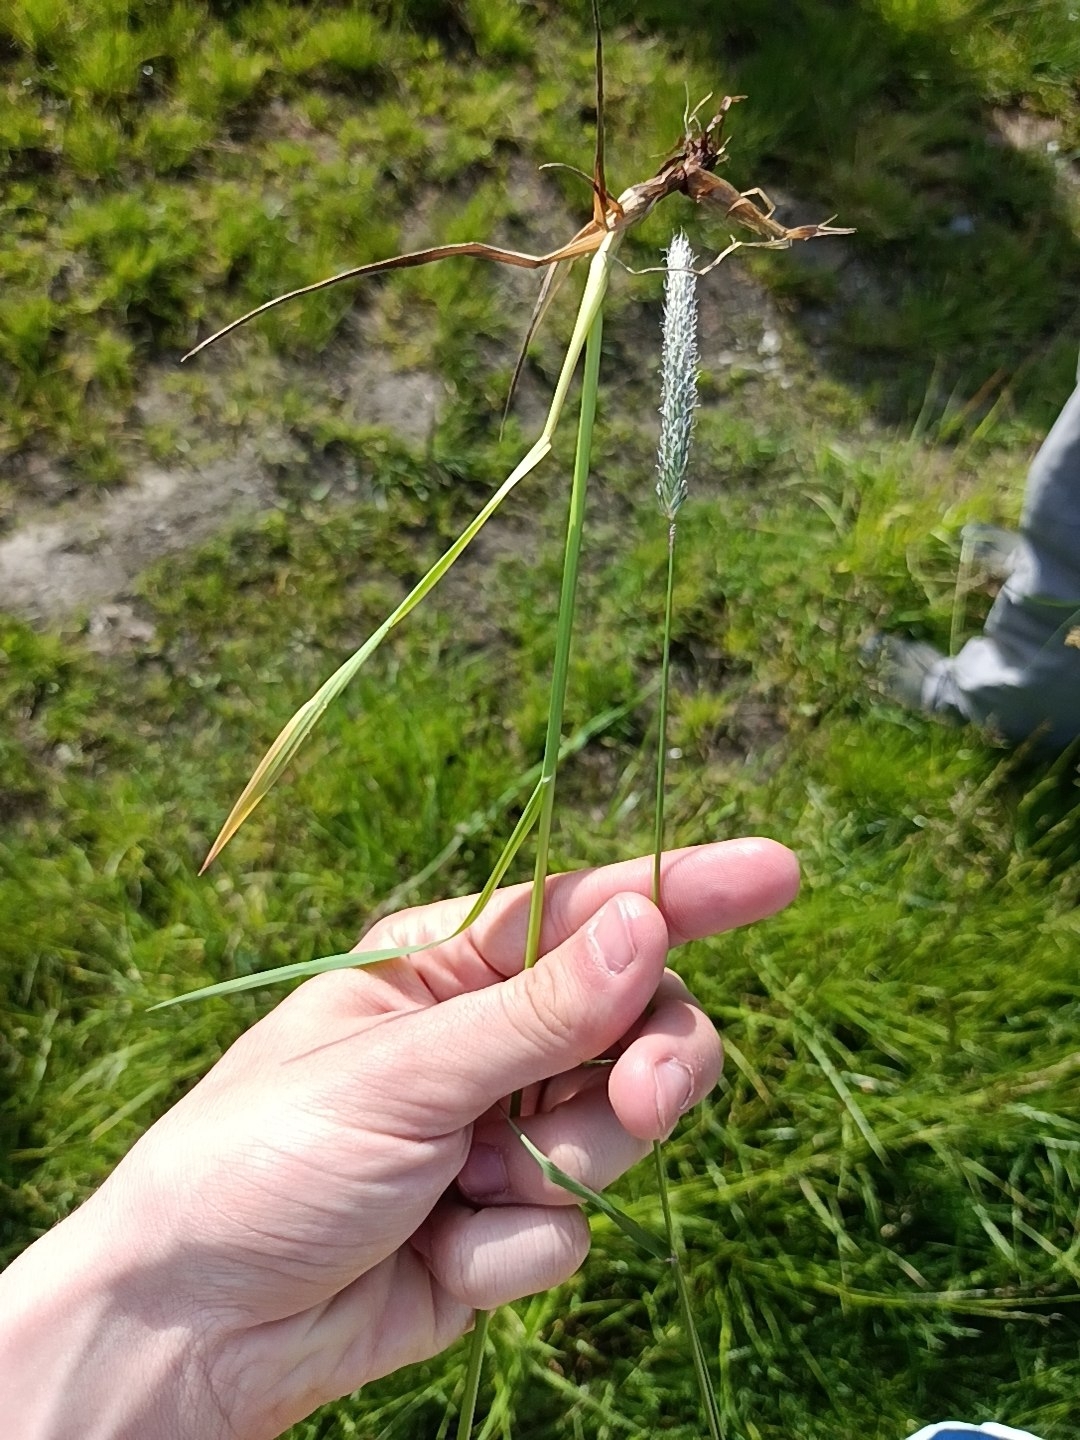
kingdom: Plantae
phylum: Tracheophyta
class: Liliopsida
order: Poales
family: Poaceae
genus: Alopecurus
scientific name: Alopecurus pratensis
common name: Meadow foxtail
